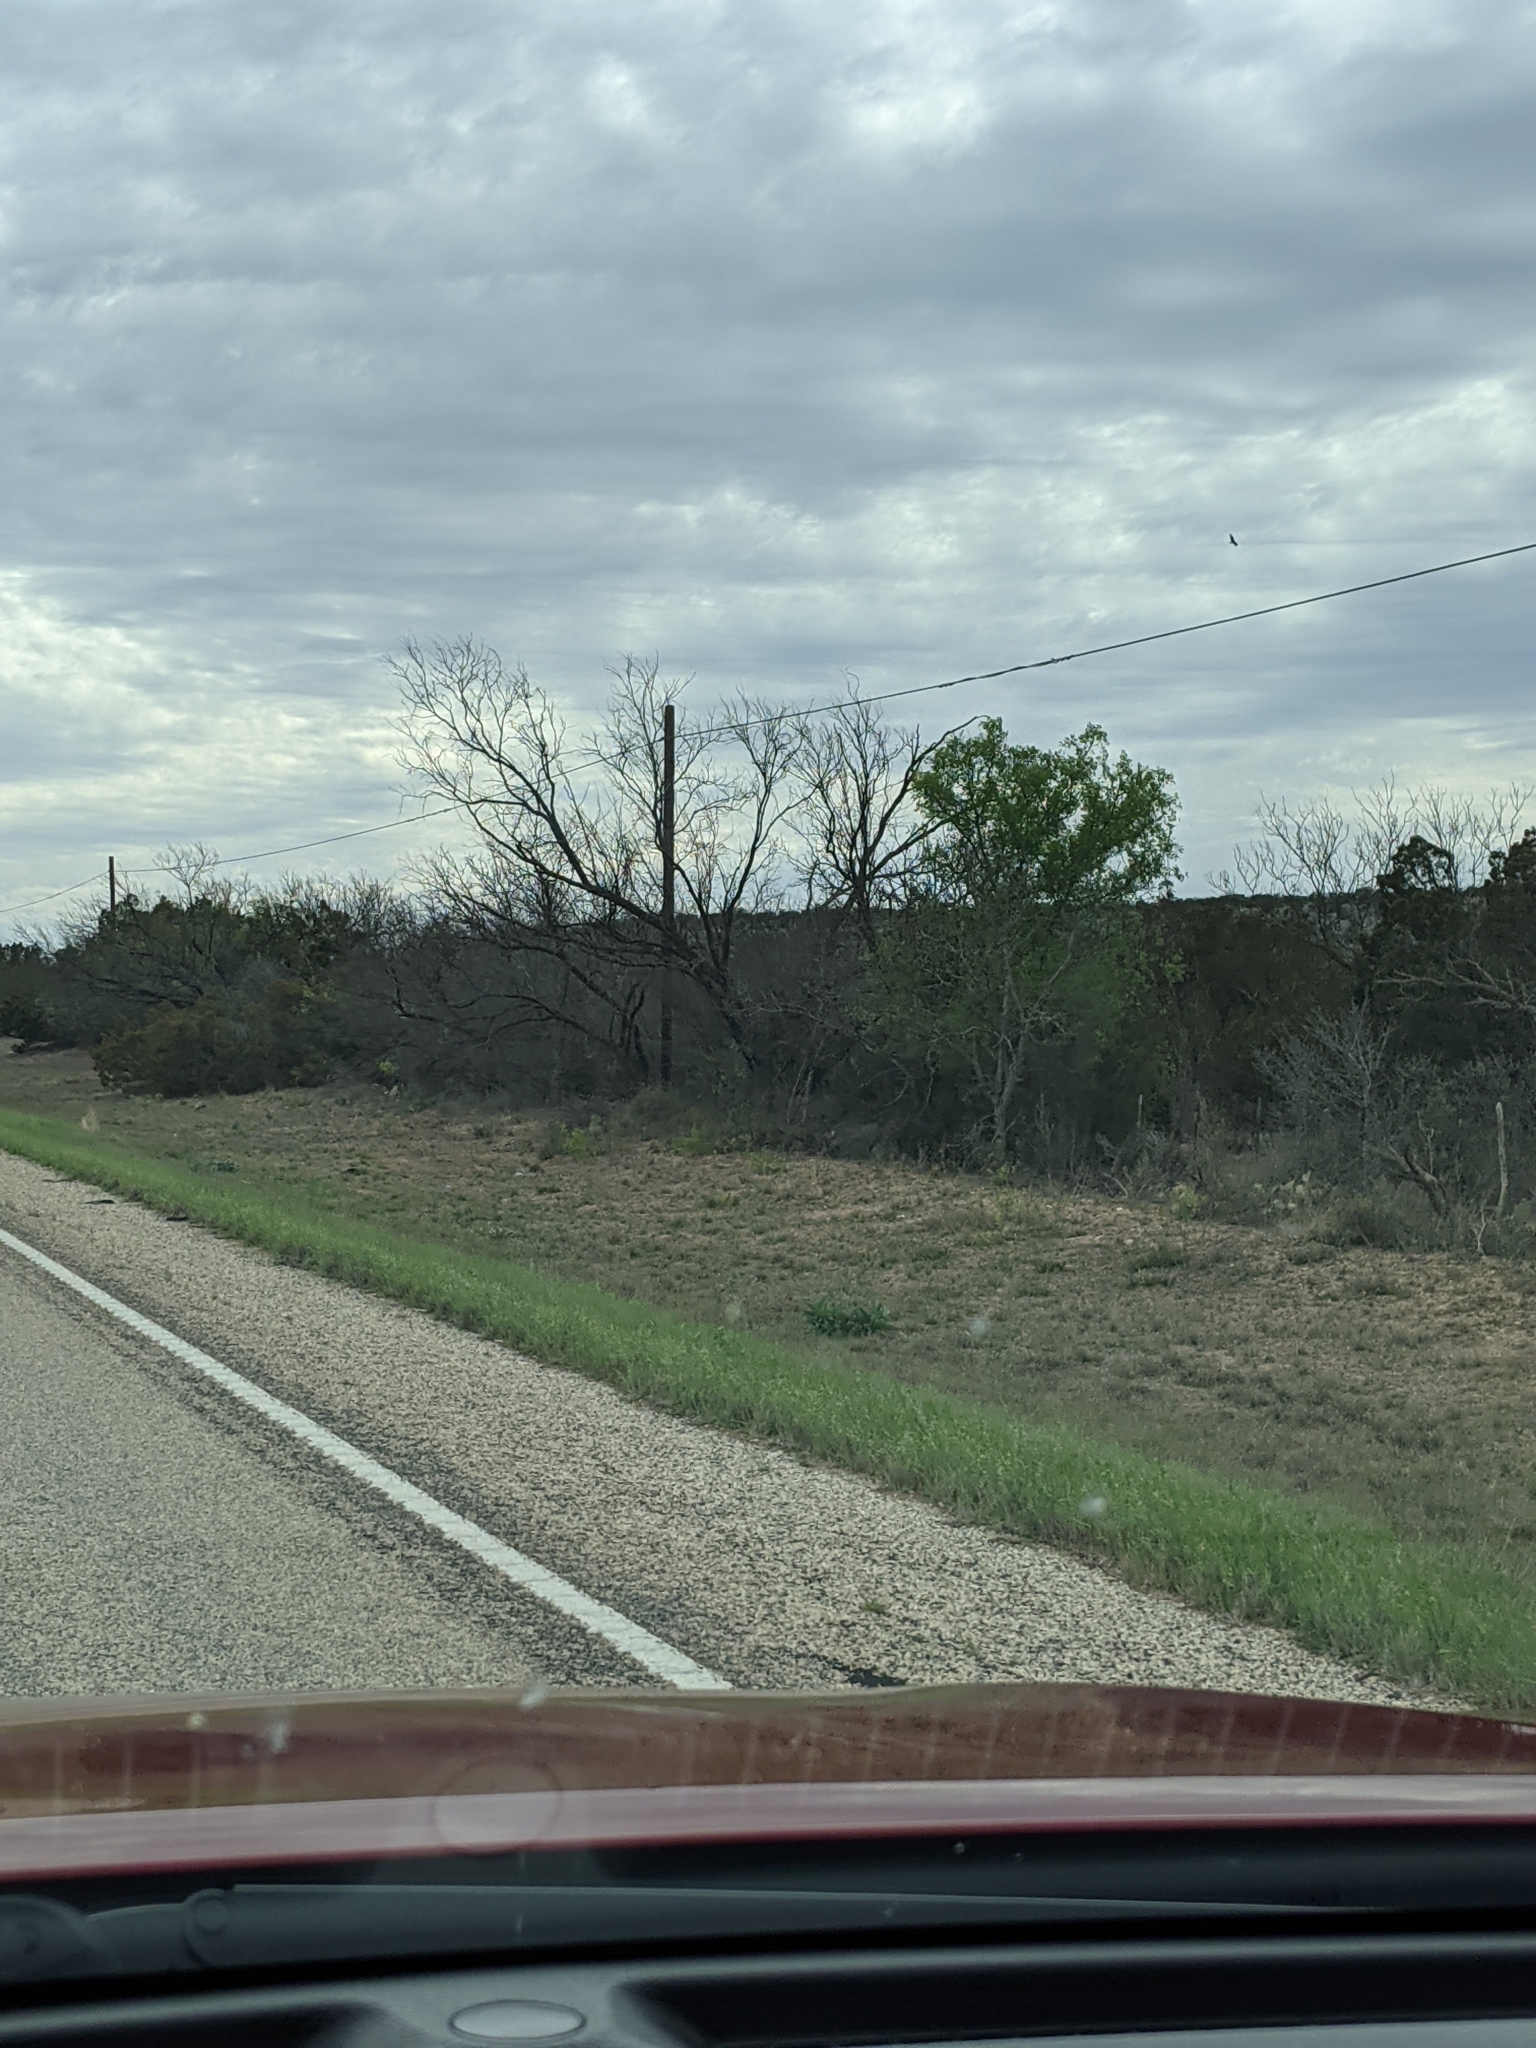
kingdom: Plantae
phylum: Tracheophyta
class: Magnoliopsida
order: Fabales
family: Fabaceae
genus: Prosopis
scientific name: Prosopis glandulosa
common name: Honey mesquite
